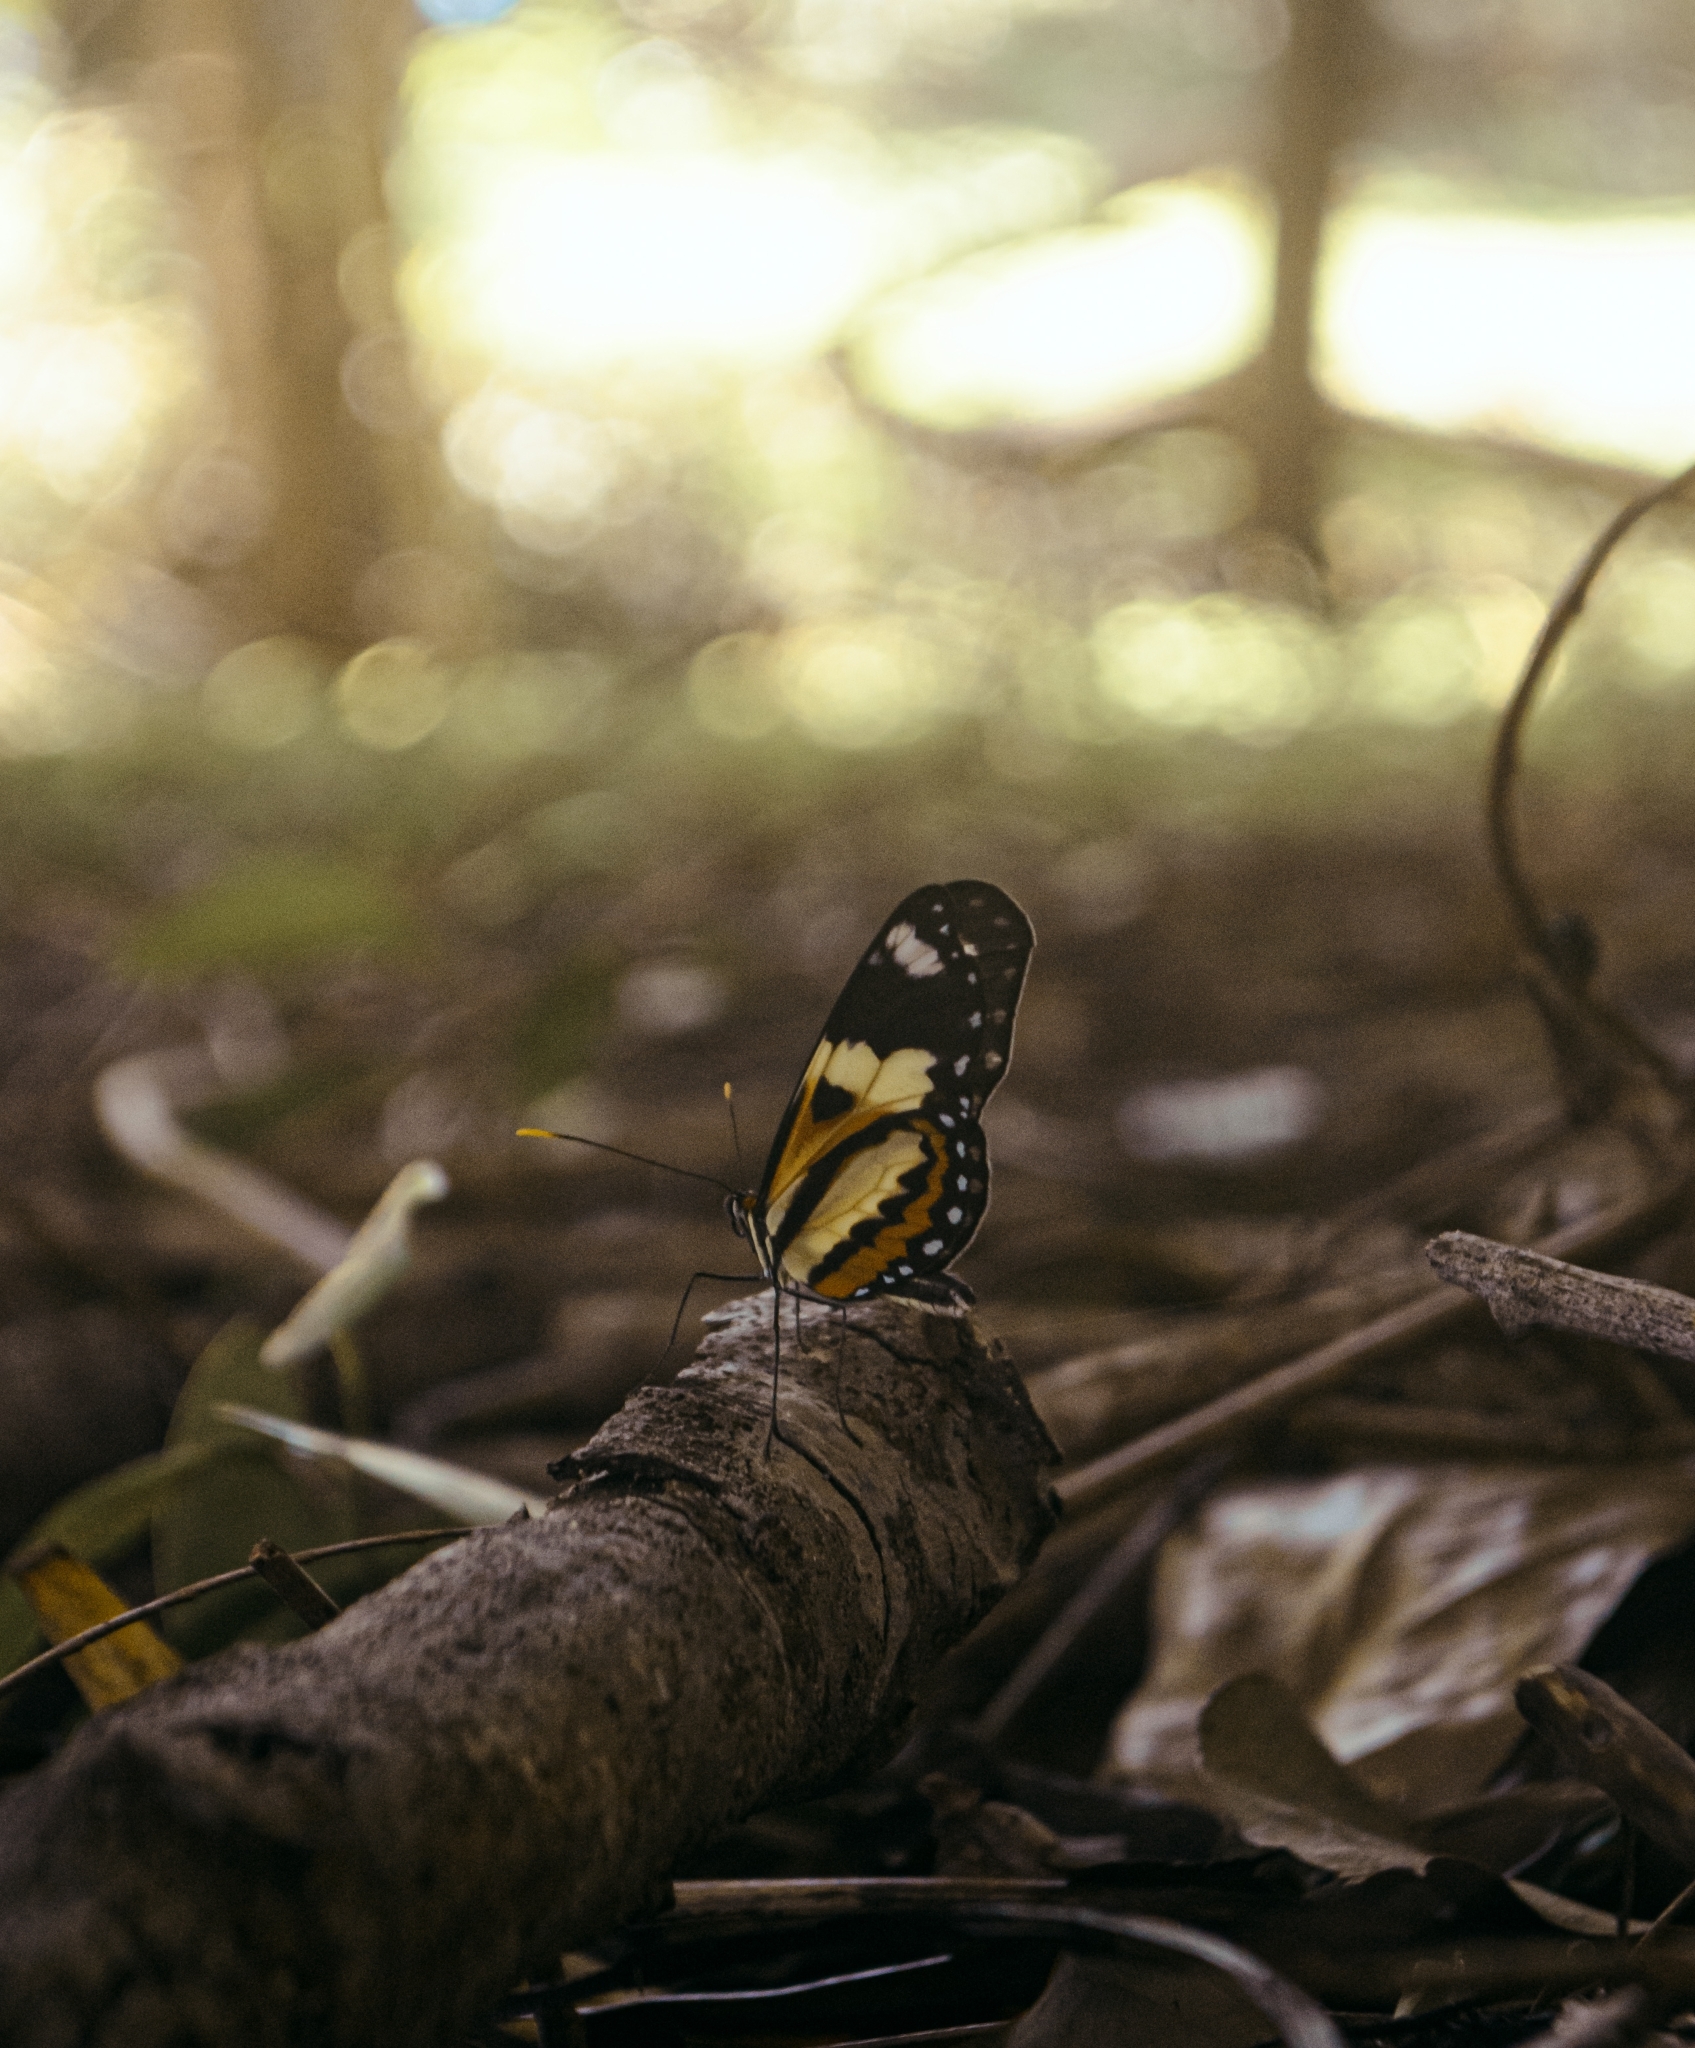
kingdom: Animalia
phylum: Arthropoda
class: Insecta
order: Lepidoptera
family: Nymphalidae
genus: Mechanitis
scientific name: Mechanitis lysimnia
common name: Lysimnia tigerwing
